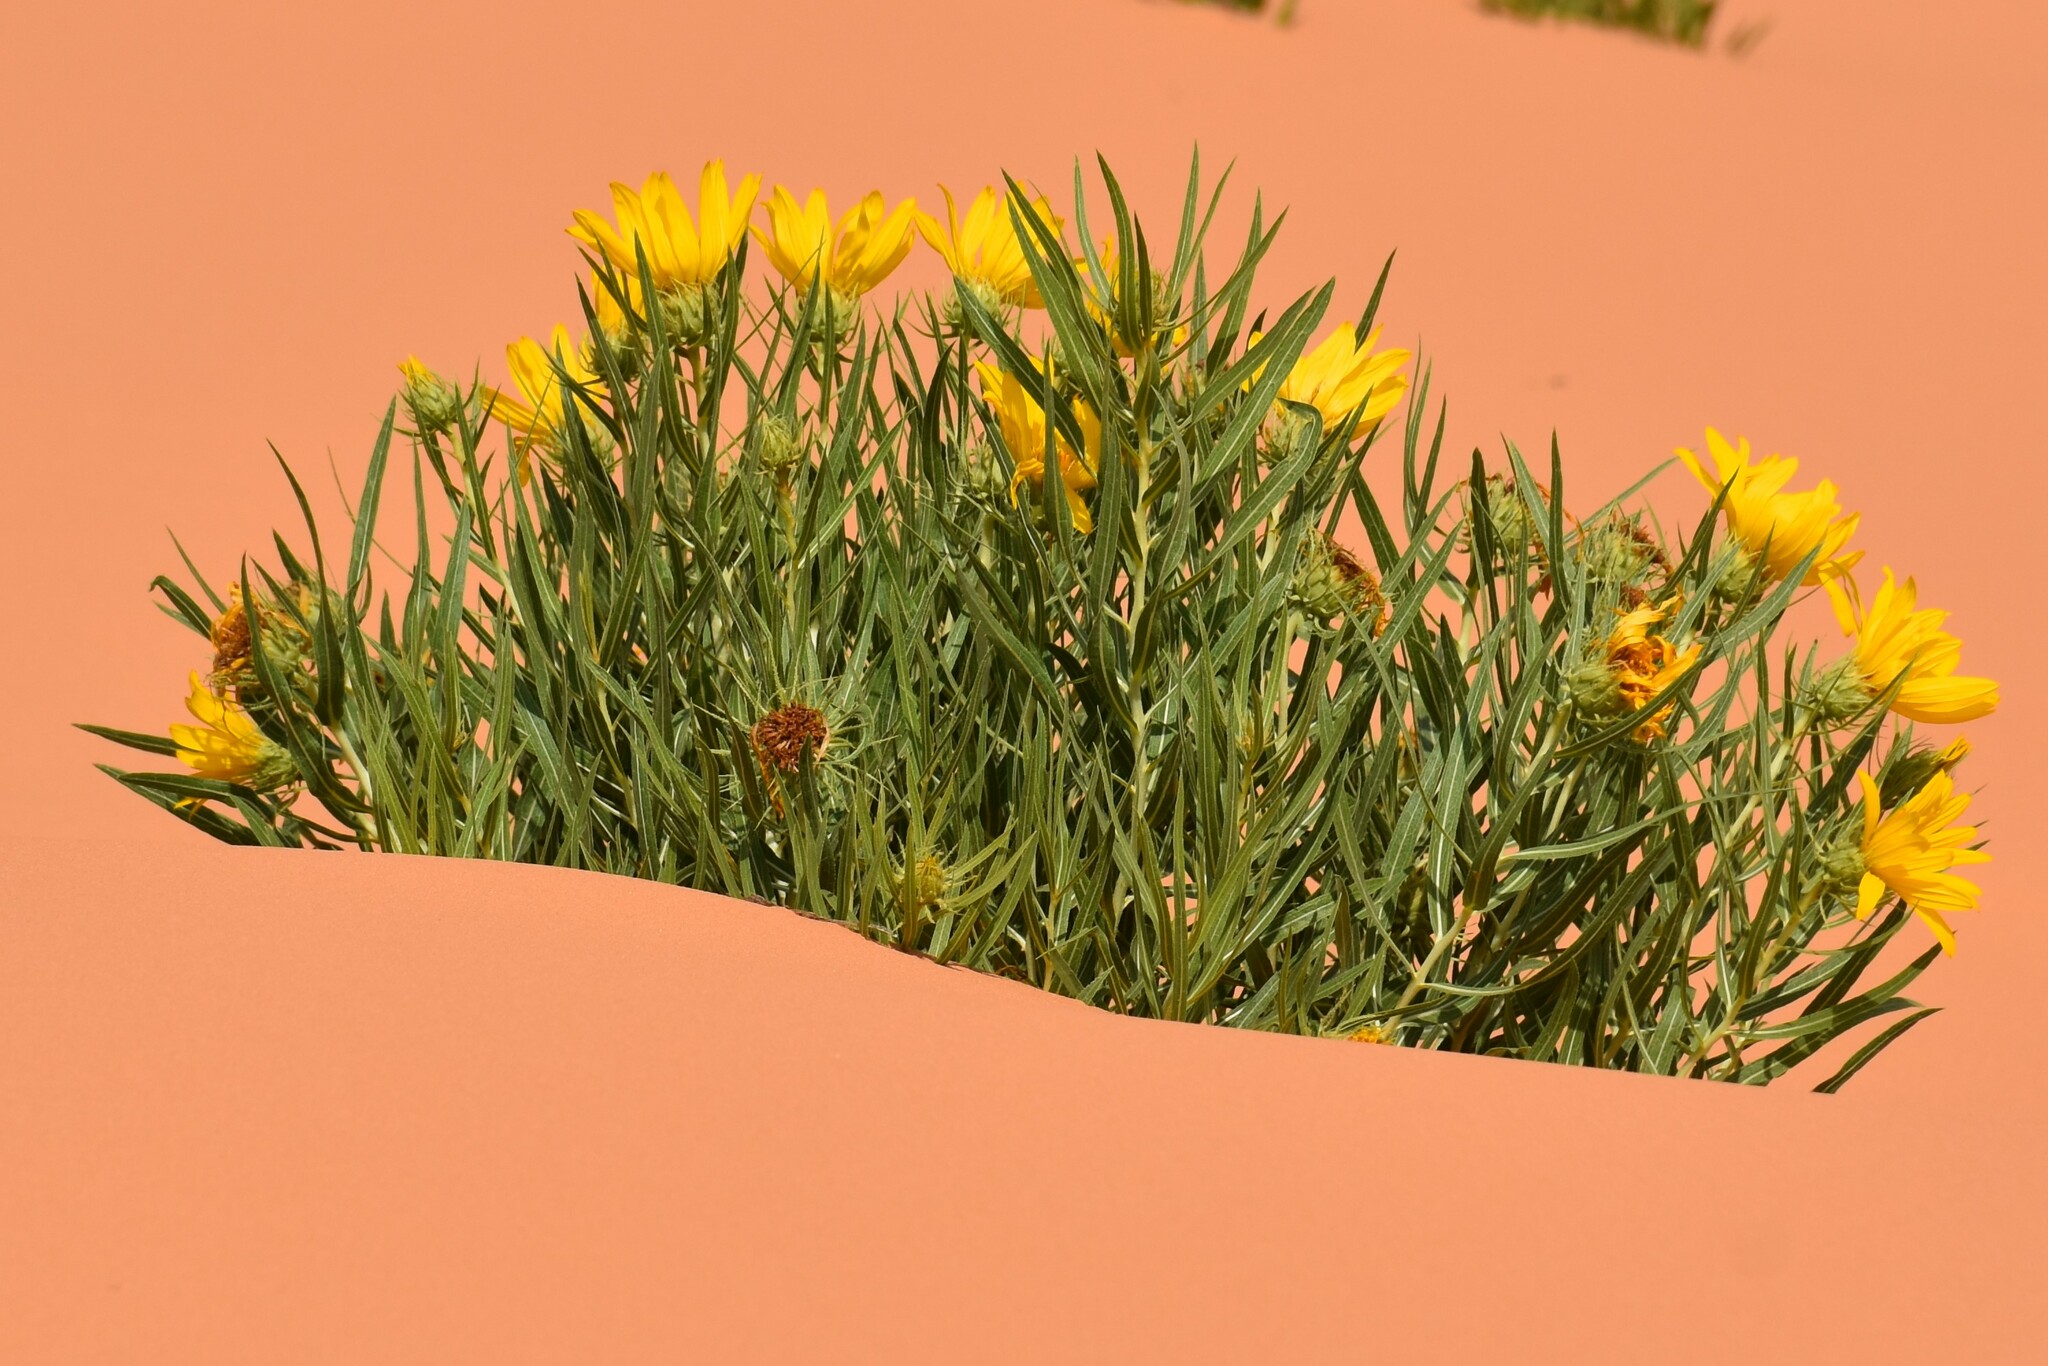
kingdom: Plantae
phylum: Tracheophyta
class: Magnoliopsida
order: Asterales
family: Asteraceae
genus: Scabrethia
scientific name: Scabrethia scabra
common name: Rough mules's-ears
